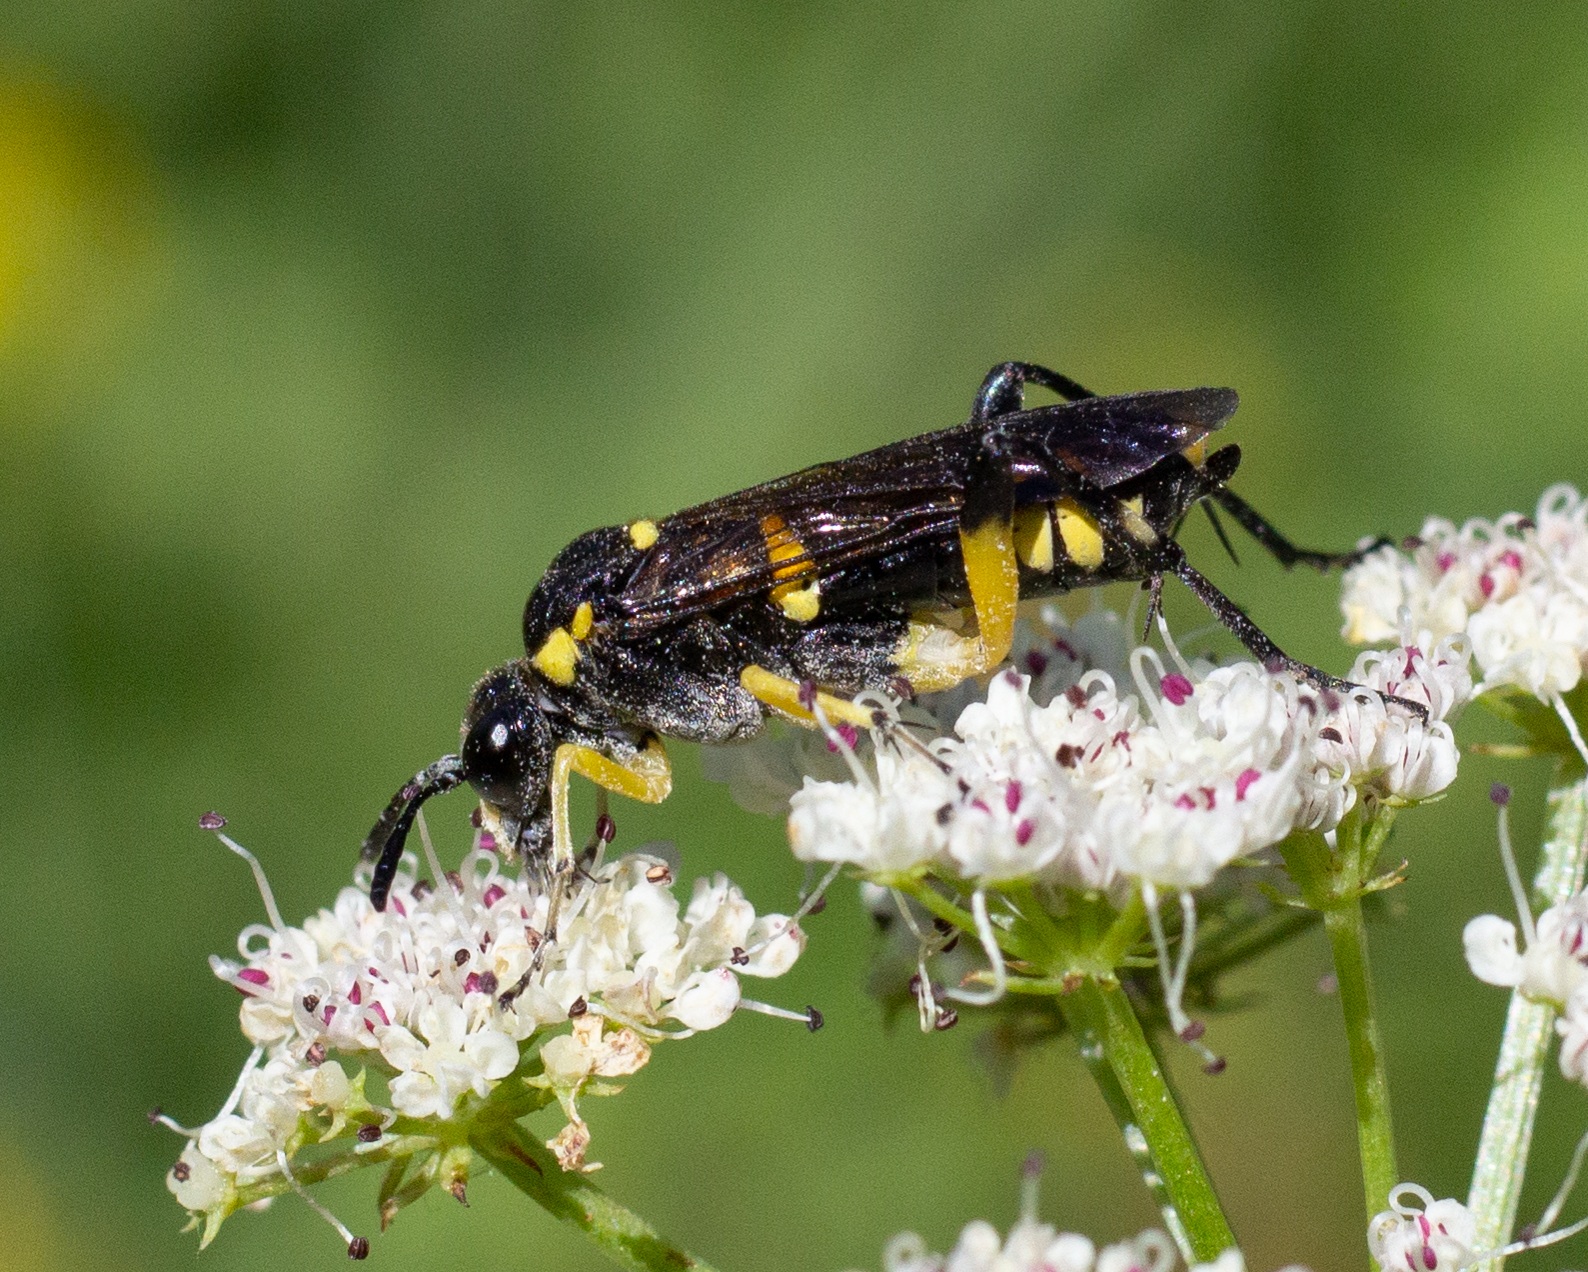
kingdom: Animalia
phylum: Arthropoda
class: Insecta
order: Hymenoptera
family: Tenthredinidae
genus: Macrophya
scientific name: Macrophya montana
